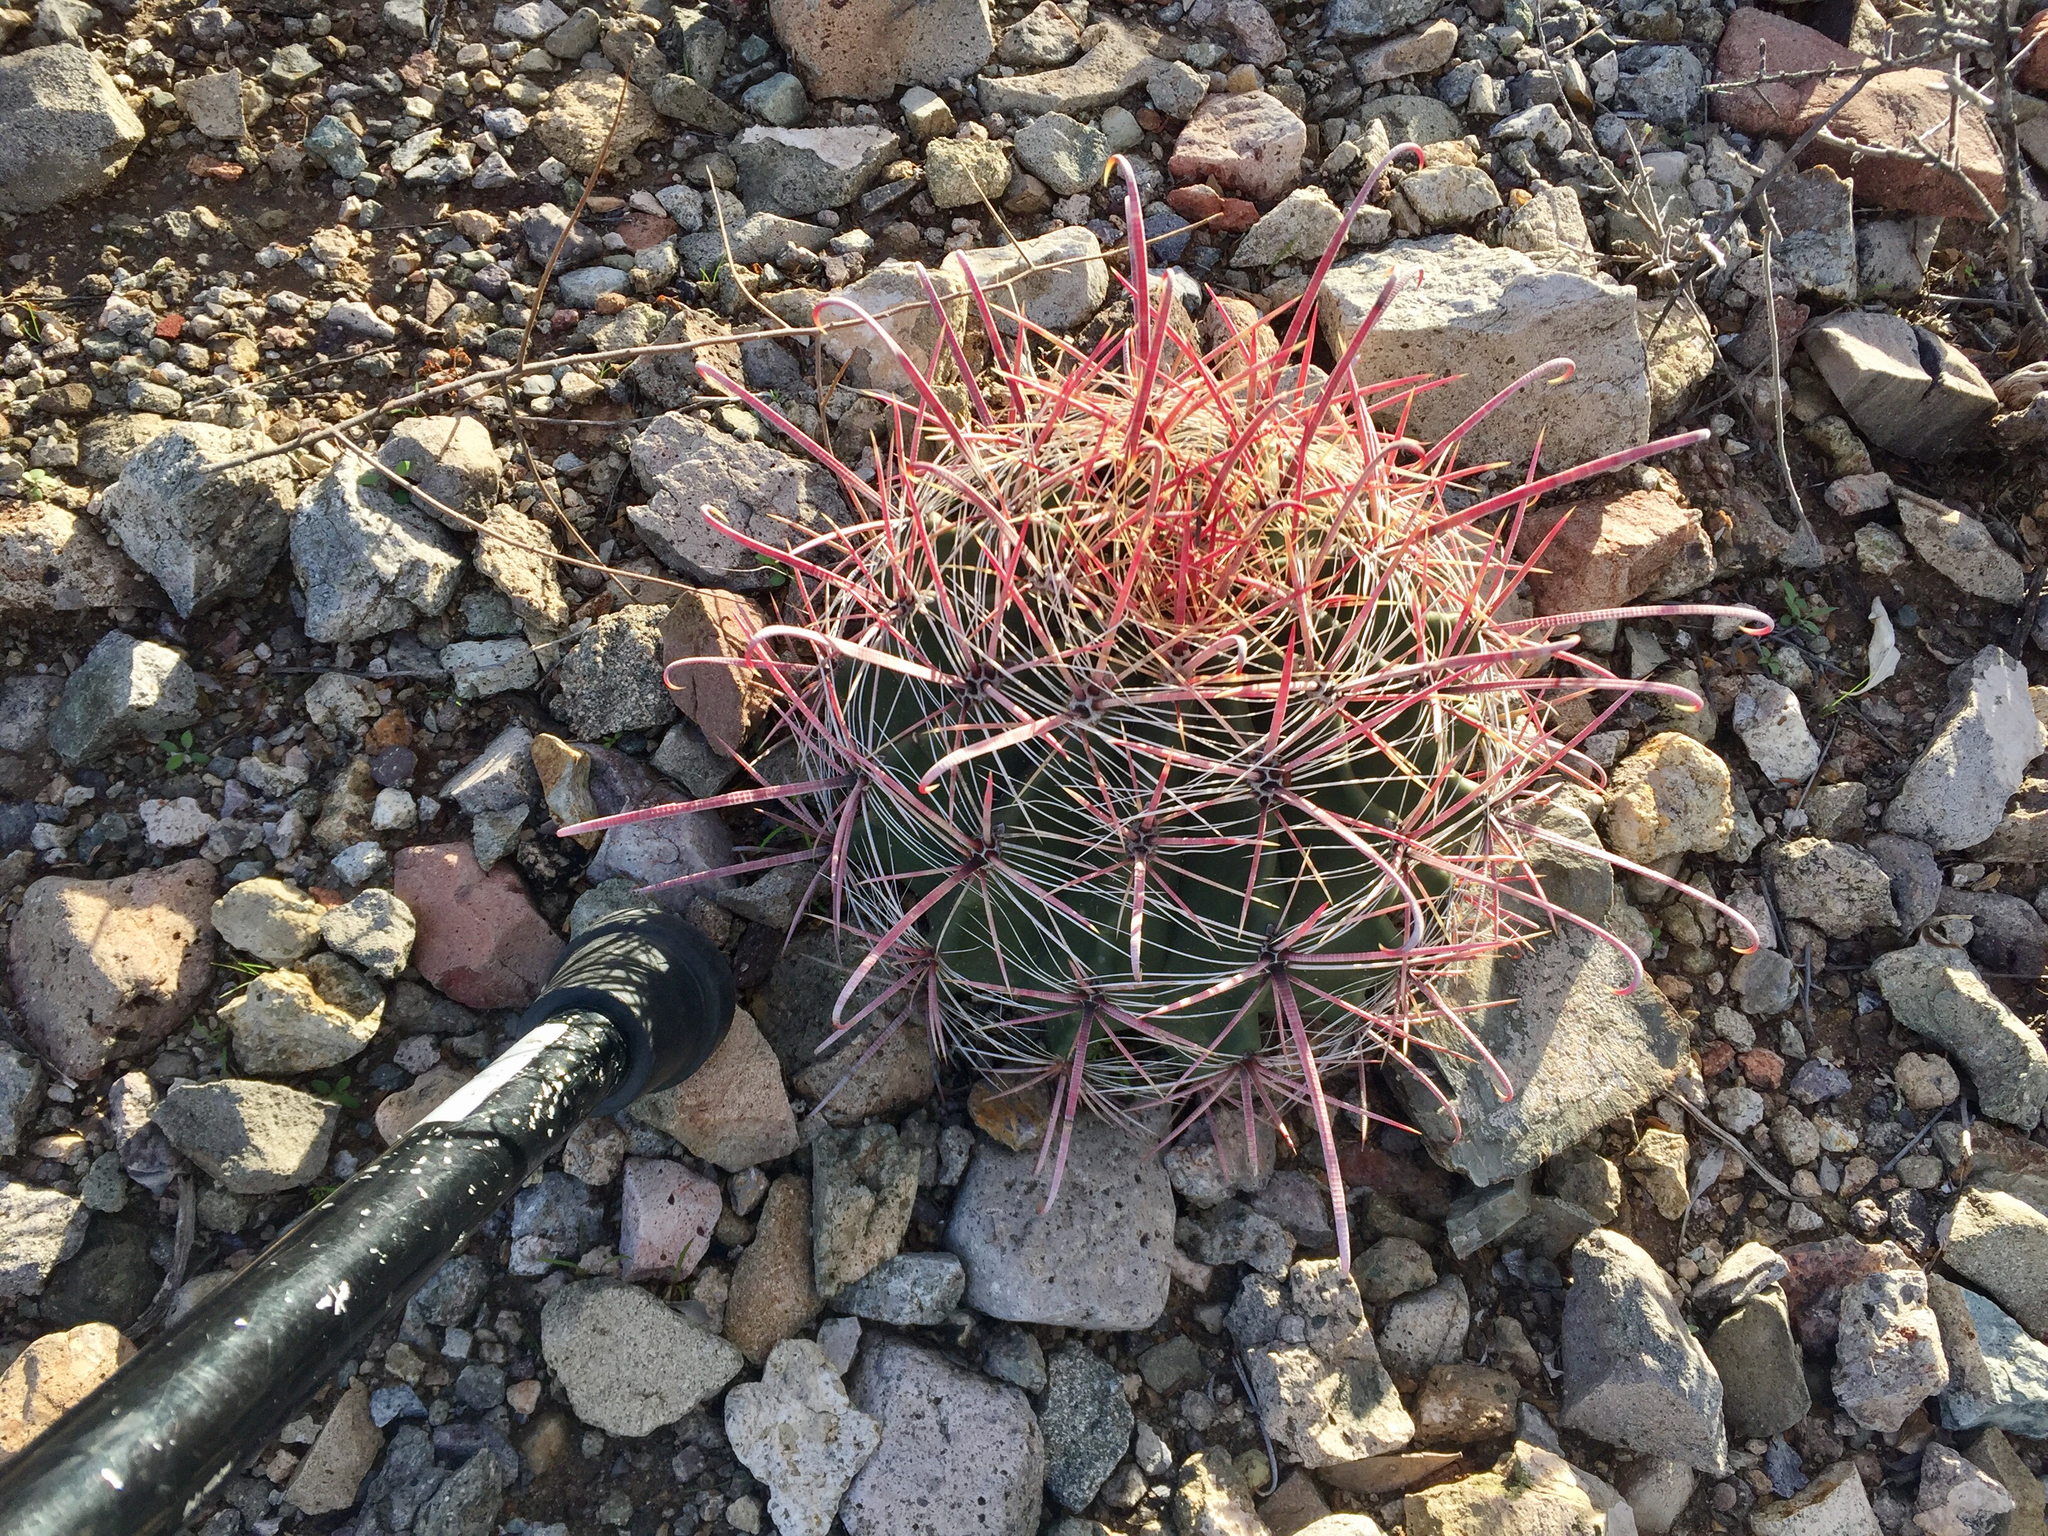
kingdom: Plantae
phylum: Tracheophyta
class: Magnoliopsida
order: Caryophyllales
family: Cactaceae
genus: Ferocactus
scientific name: Ferocactus wislizeni
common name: Candy barrel cactus
